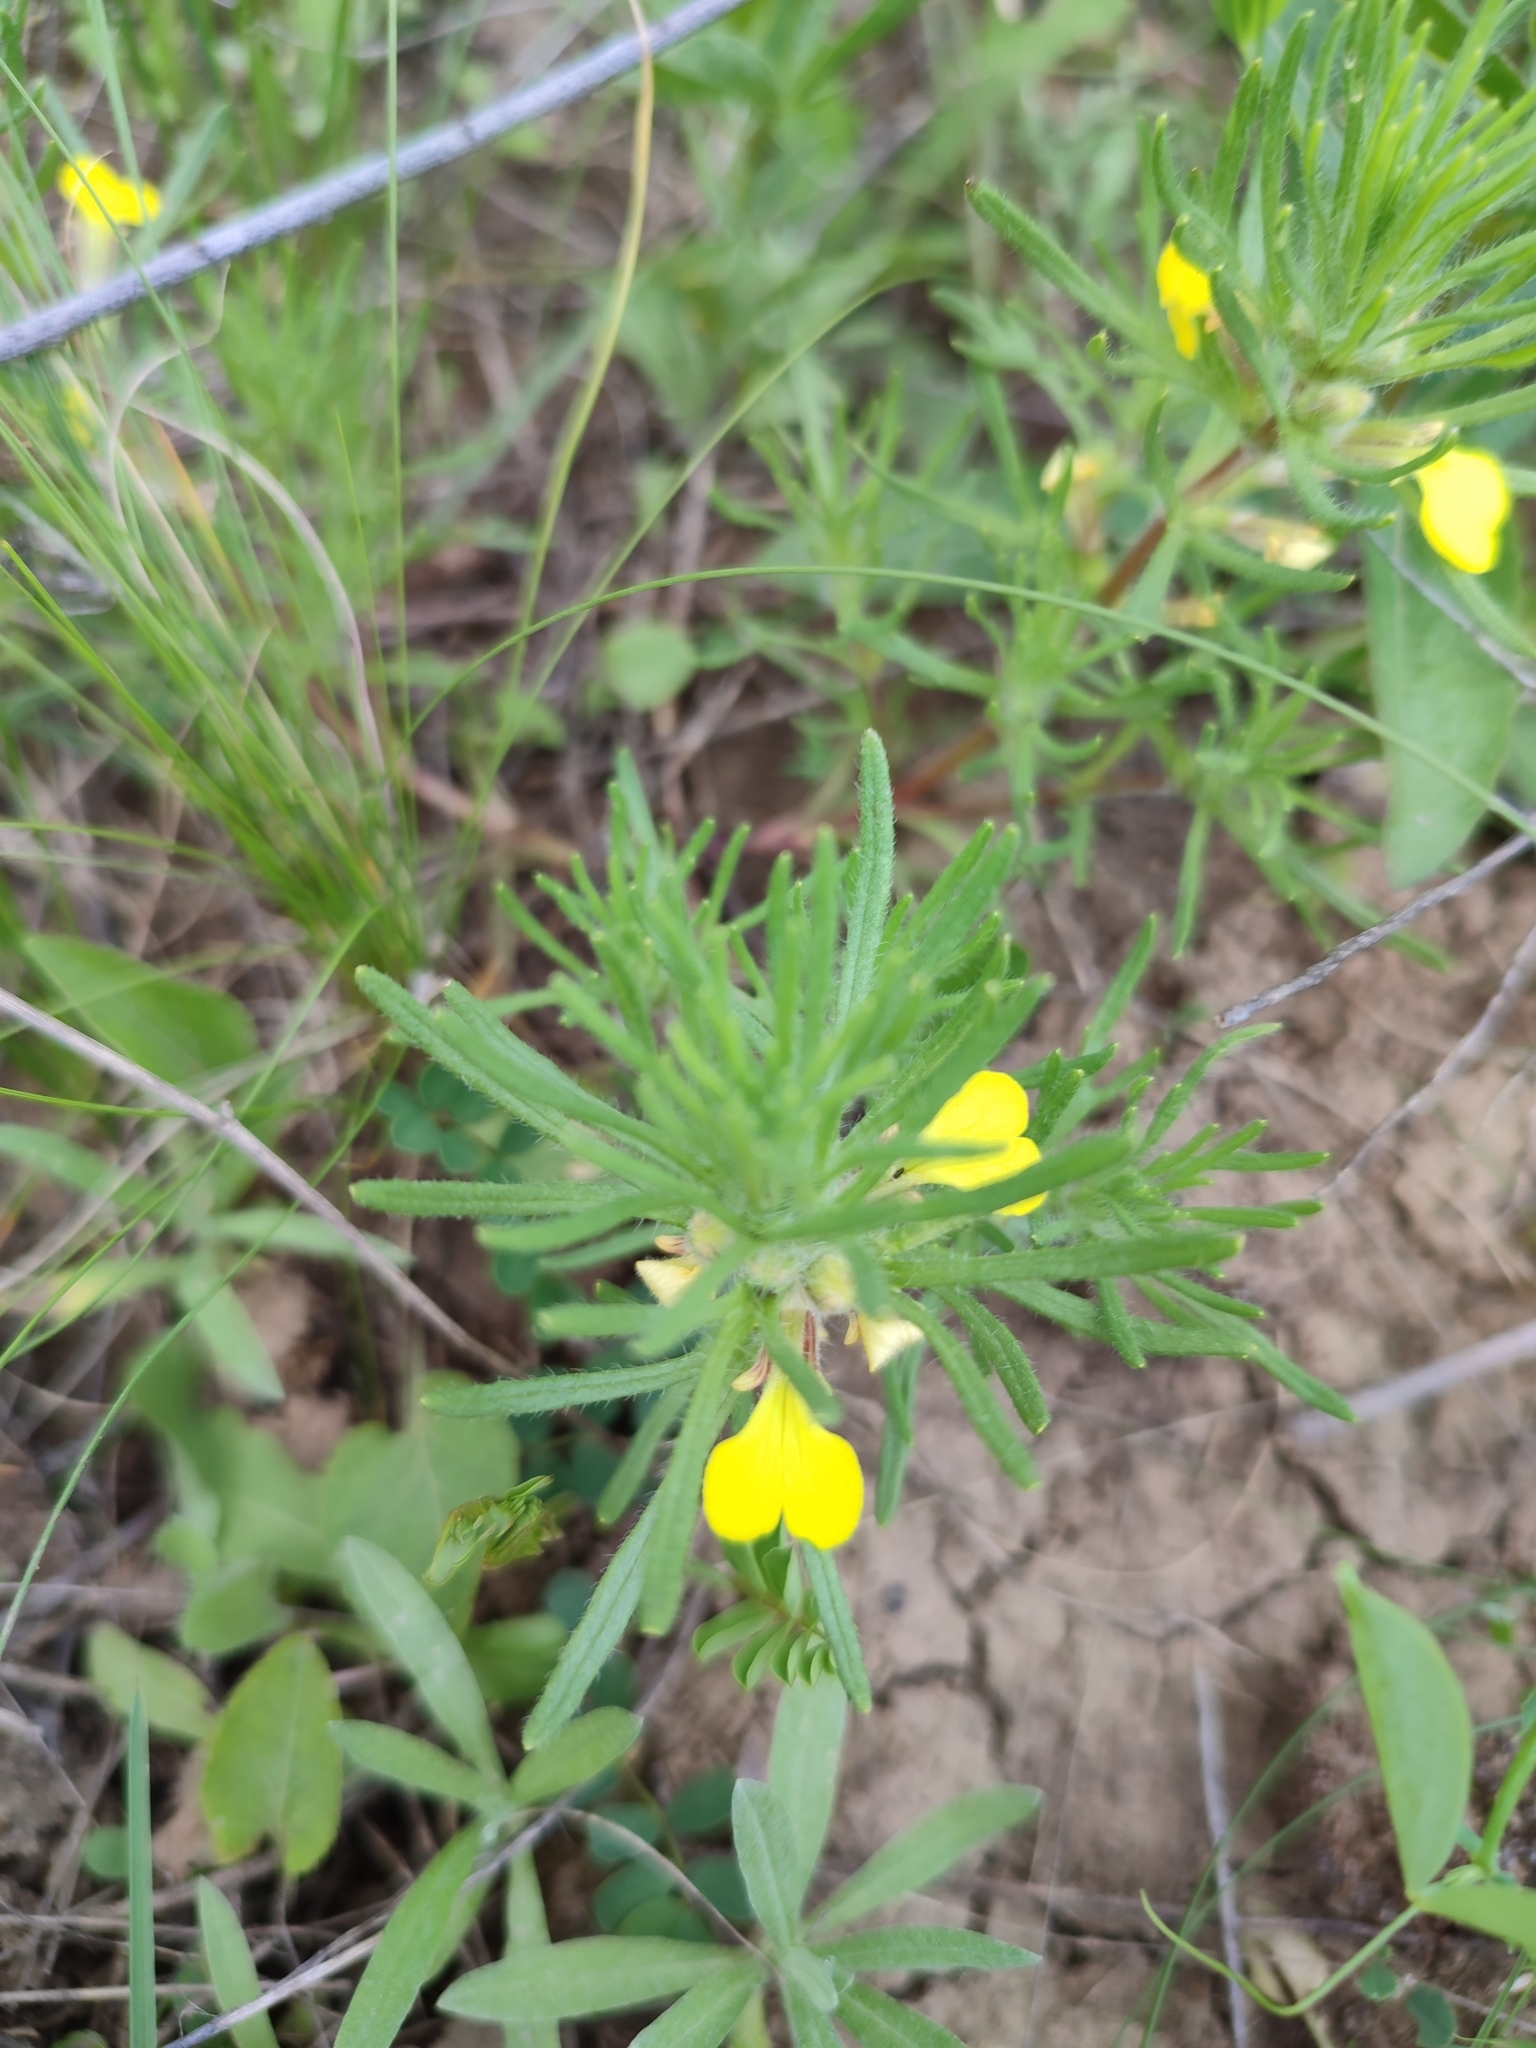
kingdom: Plantae
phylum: Tracheophyta
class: Magnoliopsida
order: Lamiales
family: Lamiaceae
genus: Ajuga
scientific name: Ajuga chamaepitys
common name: Ground-pine
